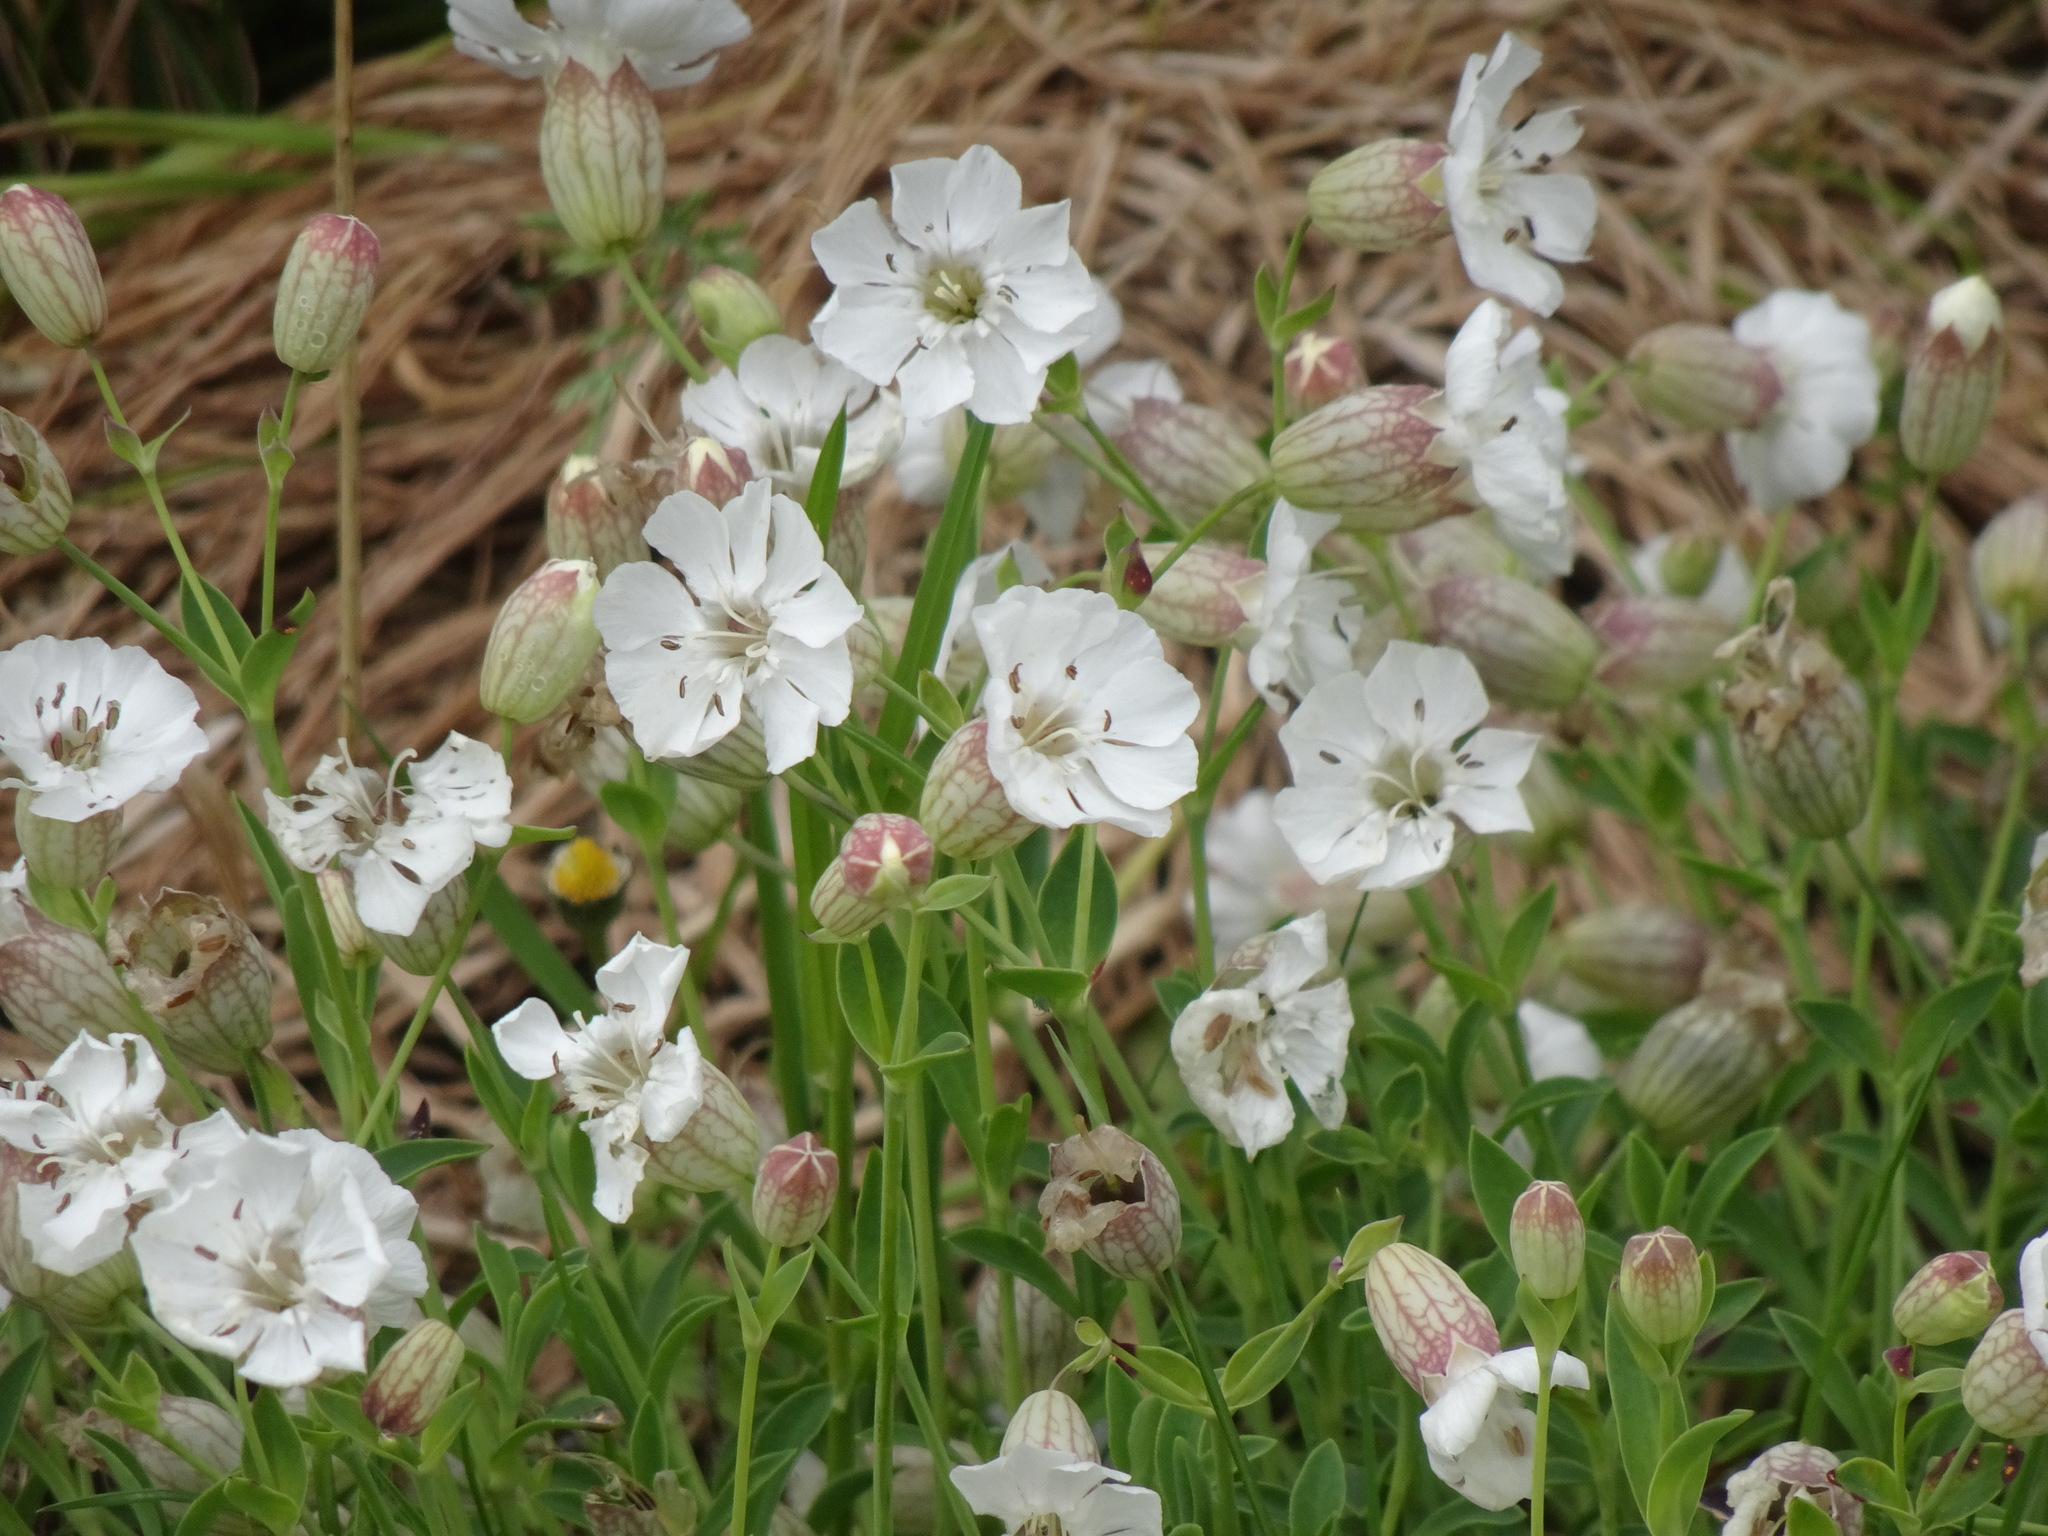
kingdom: Plantae
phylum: Tracheophyta
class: Magnoliopsida
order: Caryophyllales
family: Caryophyllaceae
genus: Silene
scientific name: Silene uniflora
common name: Sea campion
